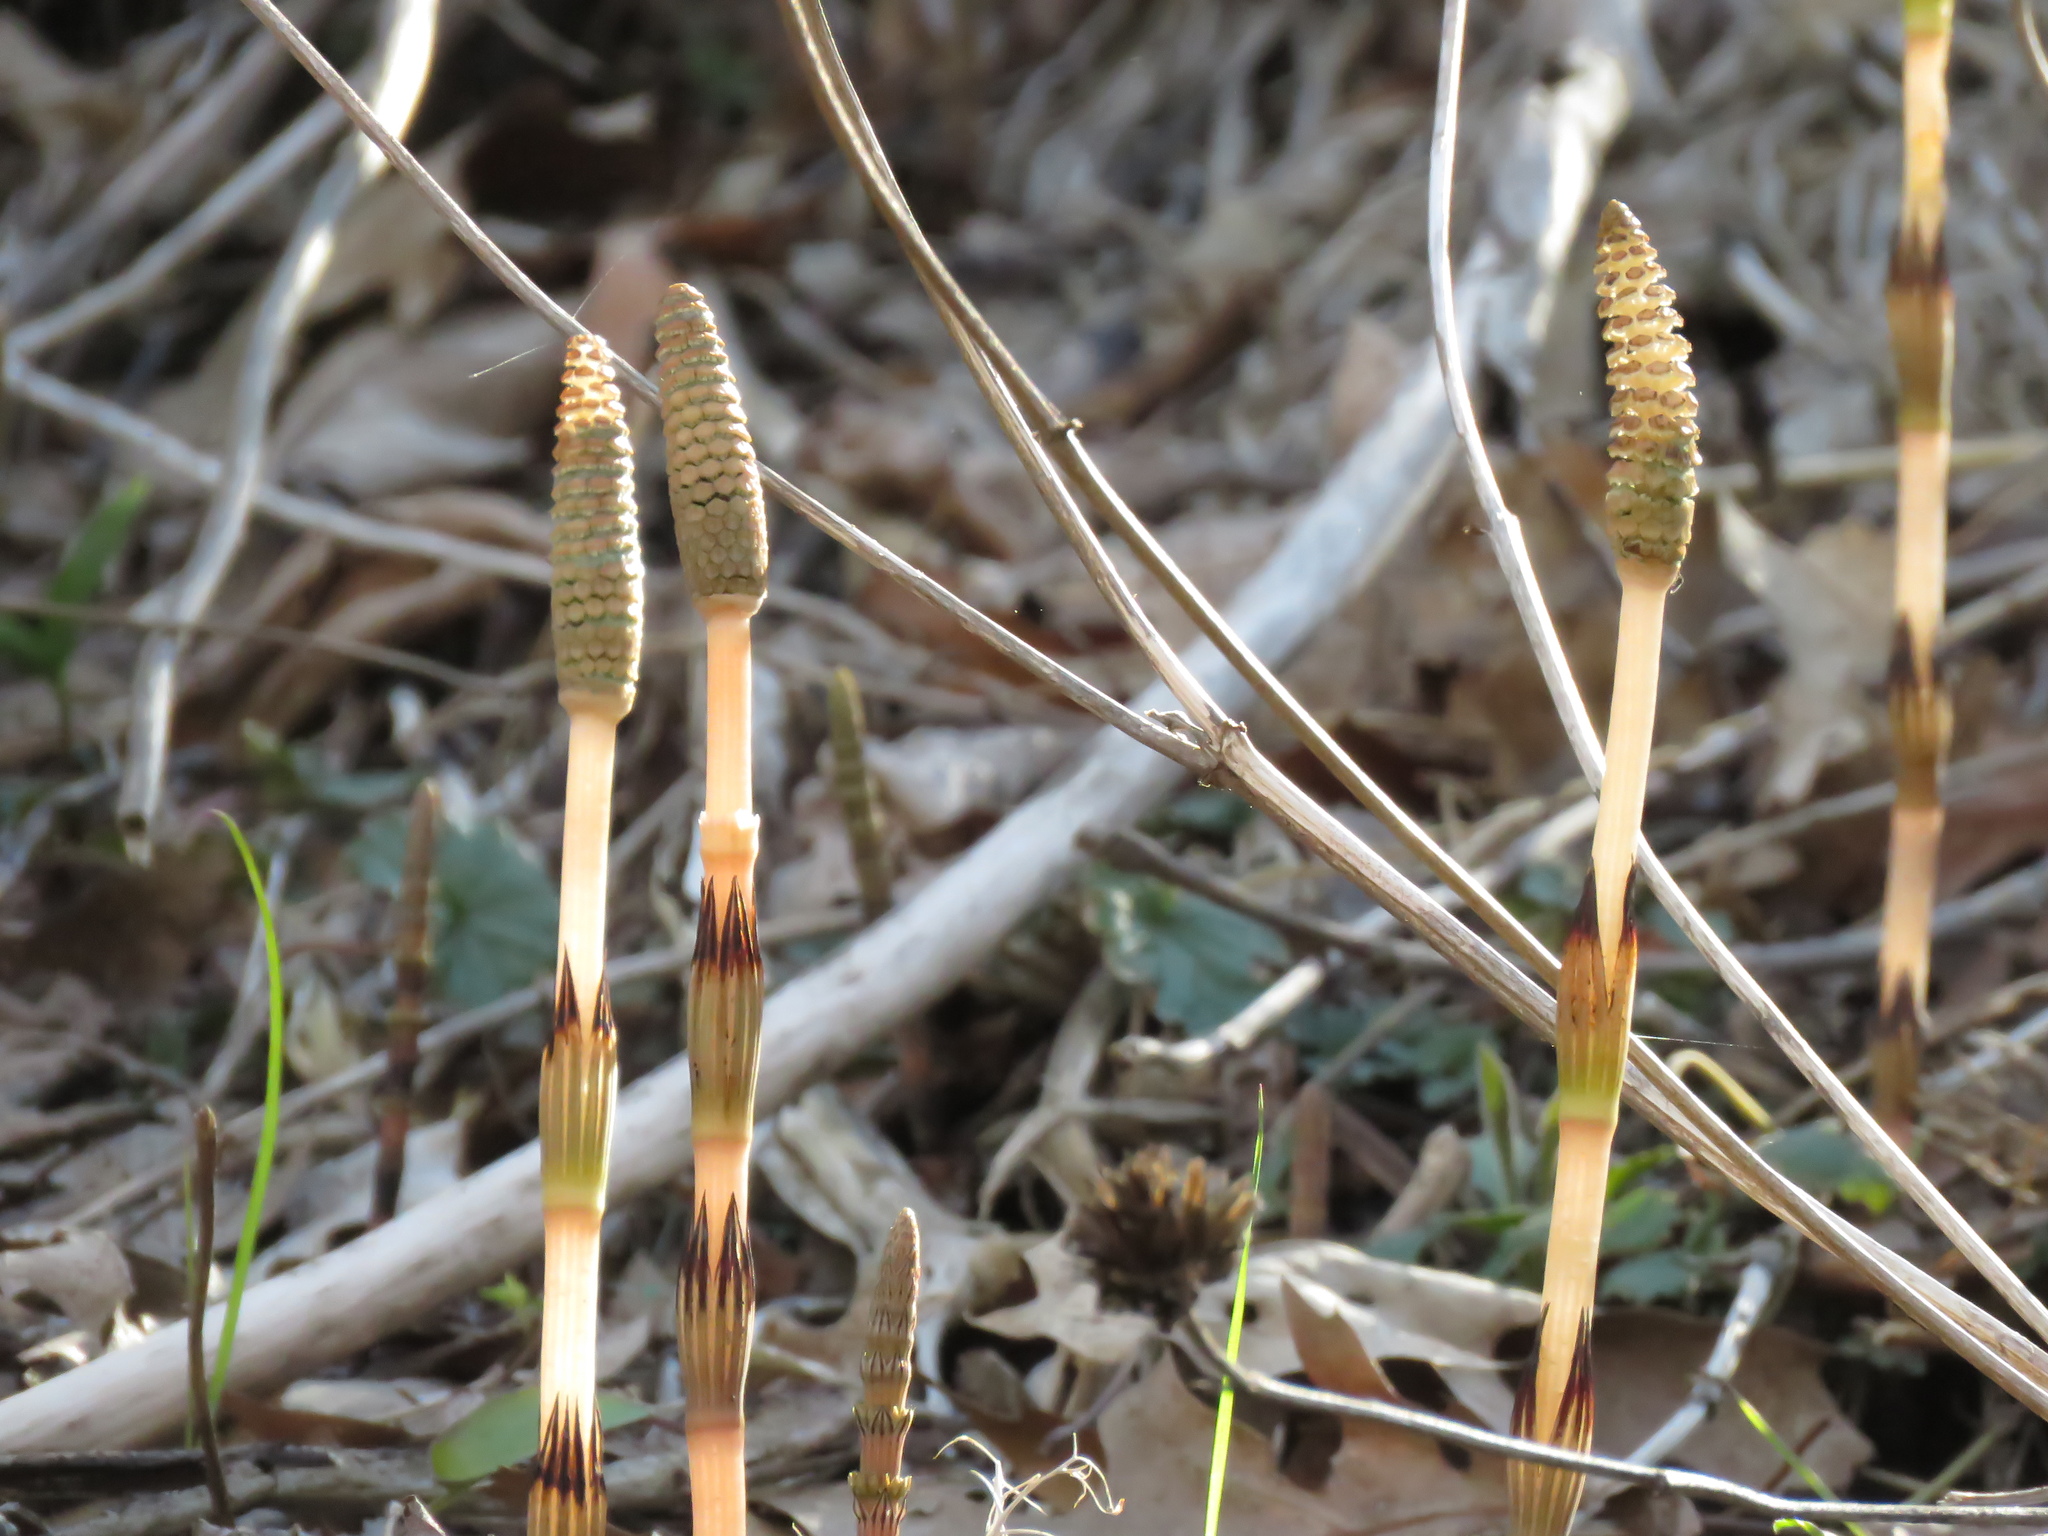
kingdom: Plantae
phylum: Tracheophyta
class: Polypodiopsida
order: Equisetales
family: Equisetaceae
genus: Equisetum
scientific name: Equisetum arvense
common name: Field horsetail
